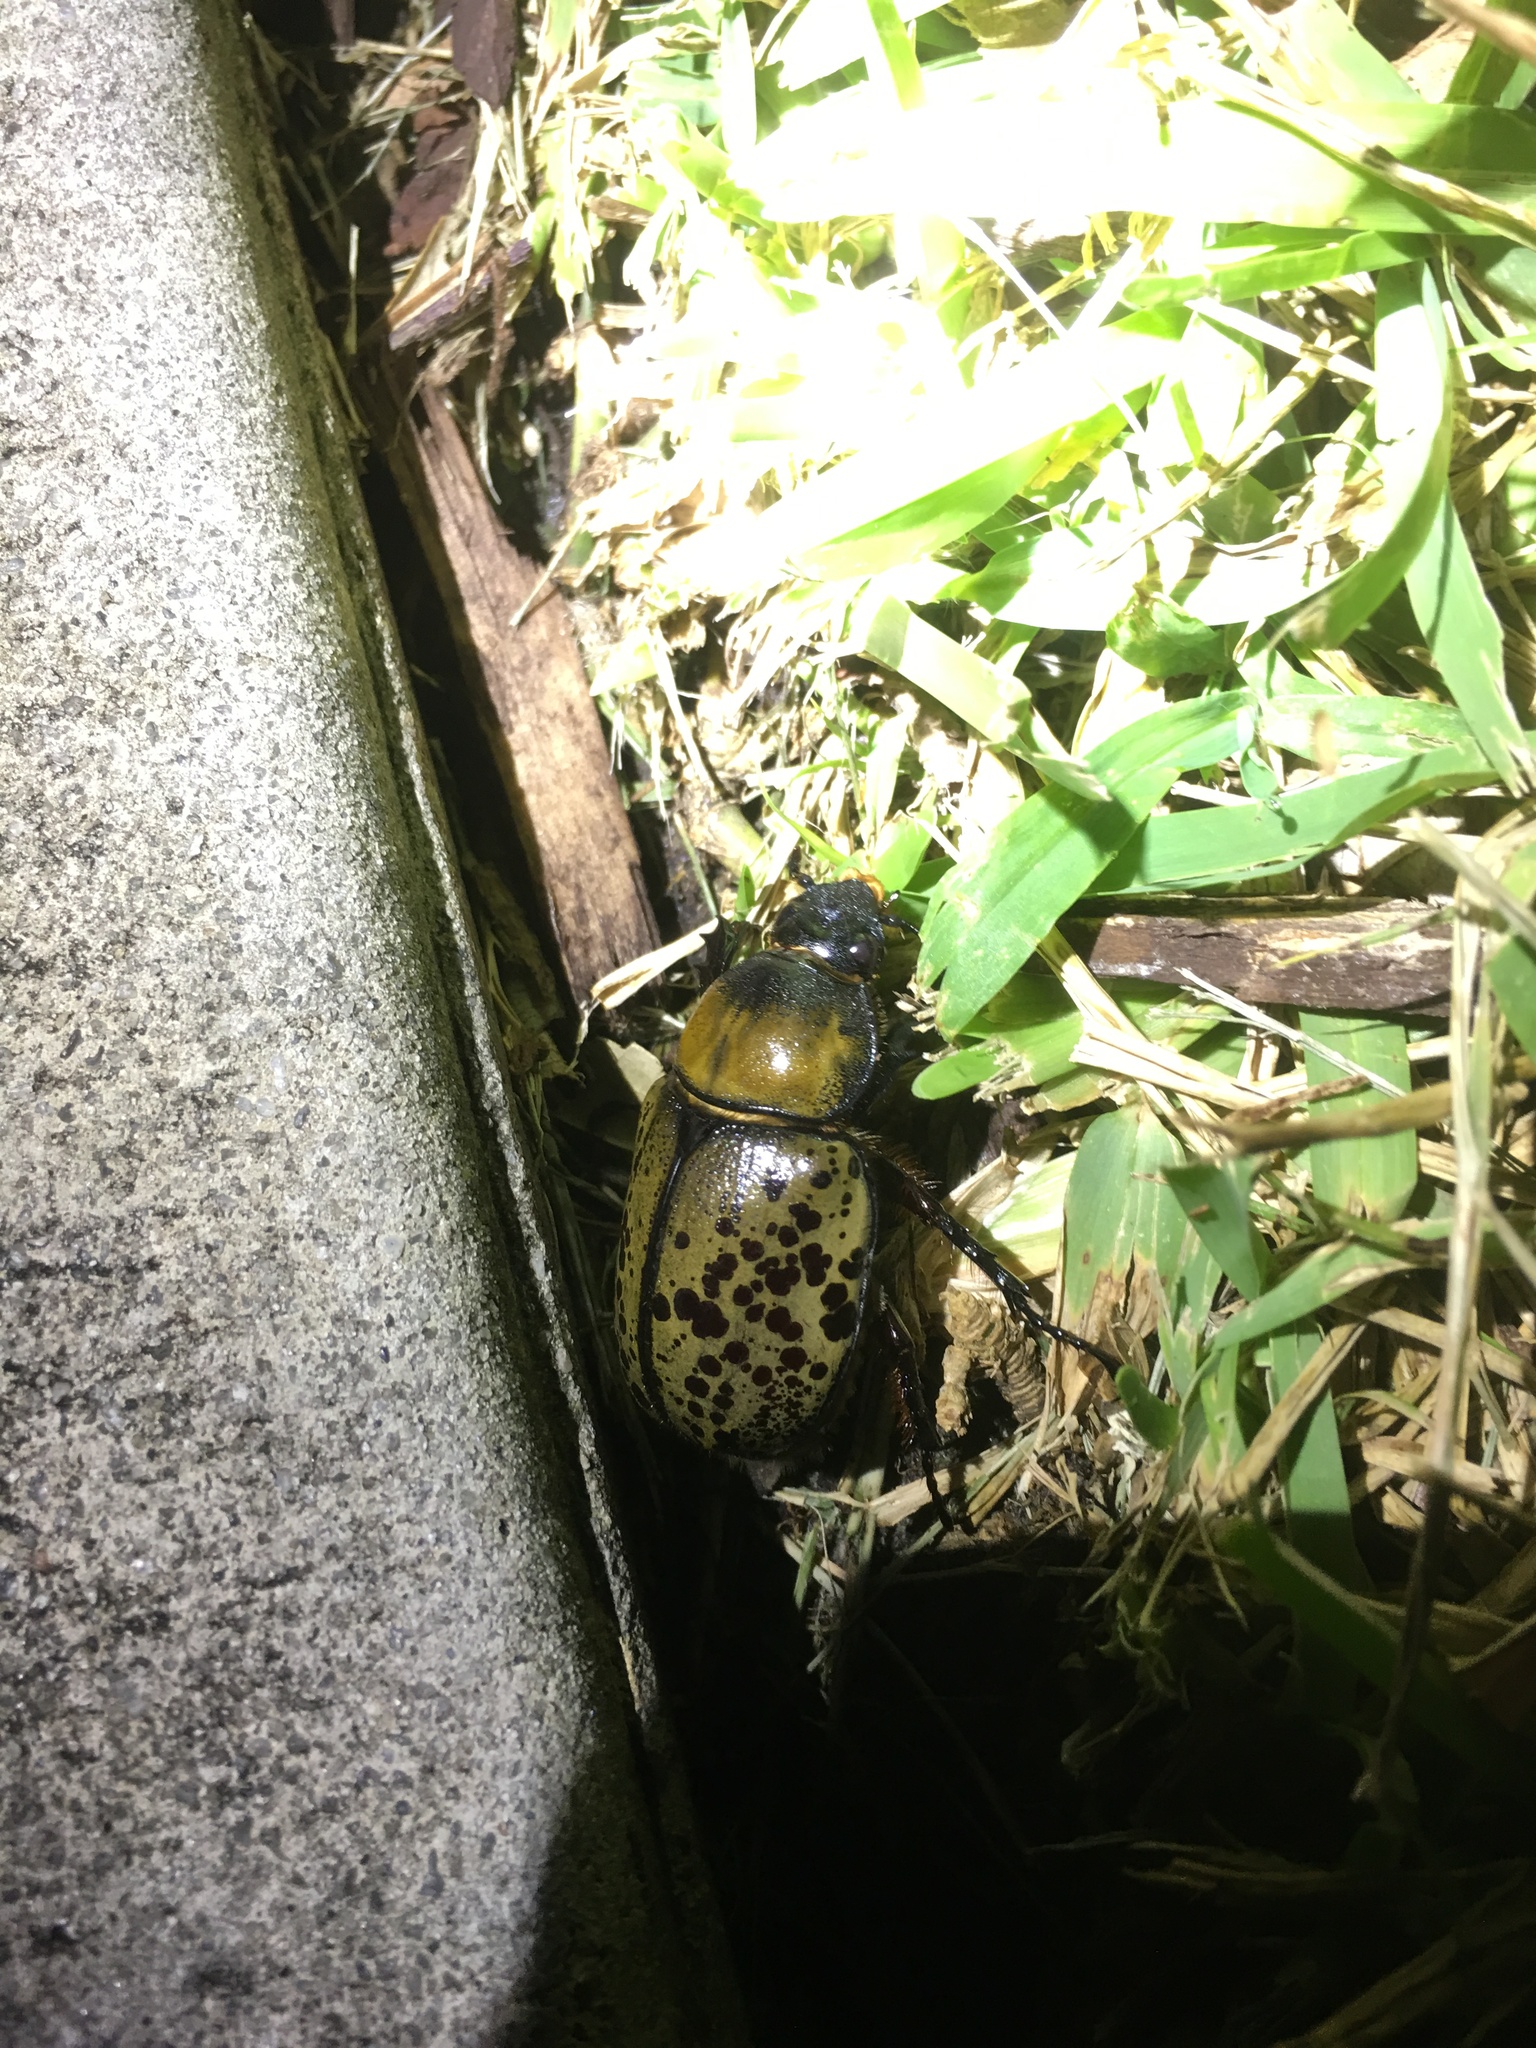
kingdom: Animalia
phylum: Arthropoda
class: Insecta
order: Coleoptera
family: Scarabaeidae
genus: Dynastes
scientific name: Dynastes tityus
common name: Eastern hercules beetle
